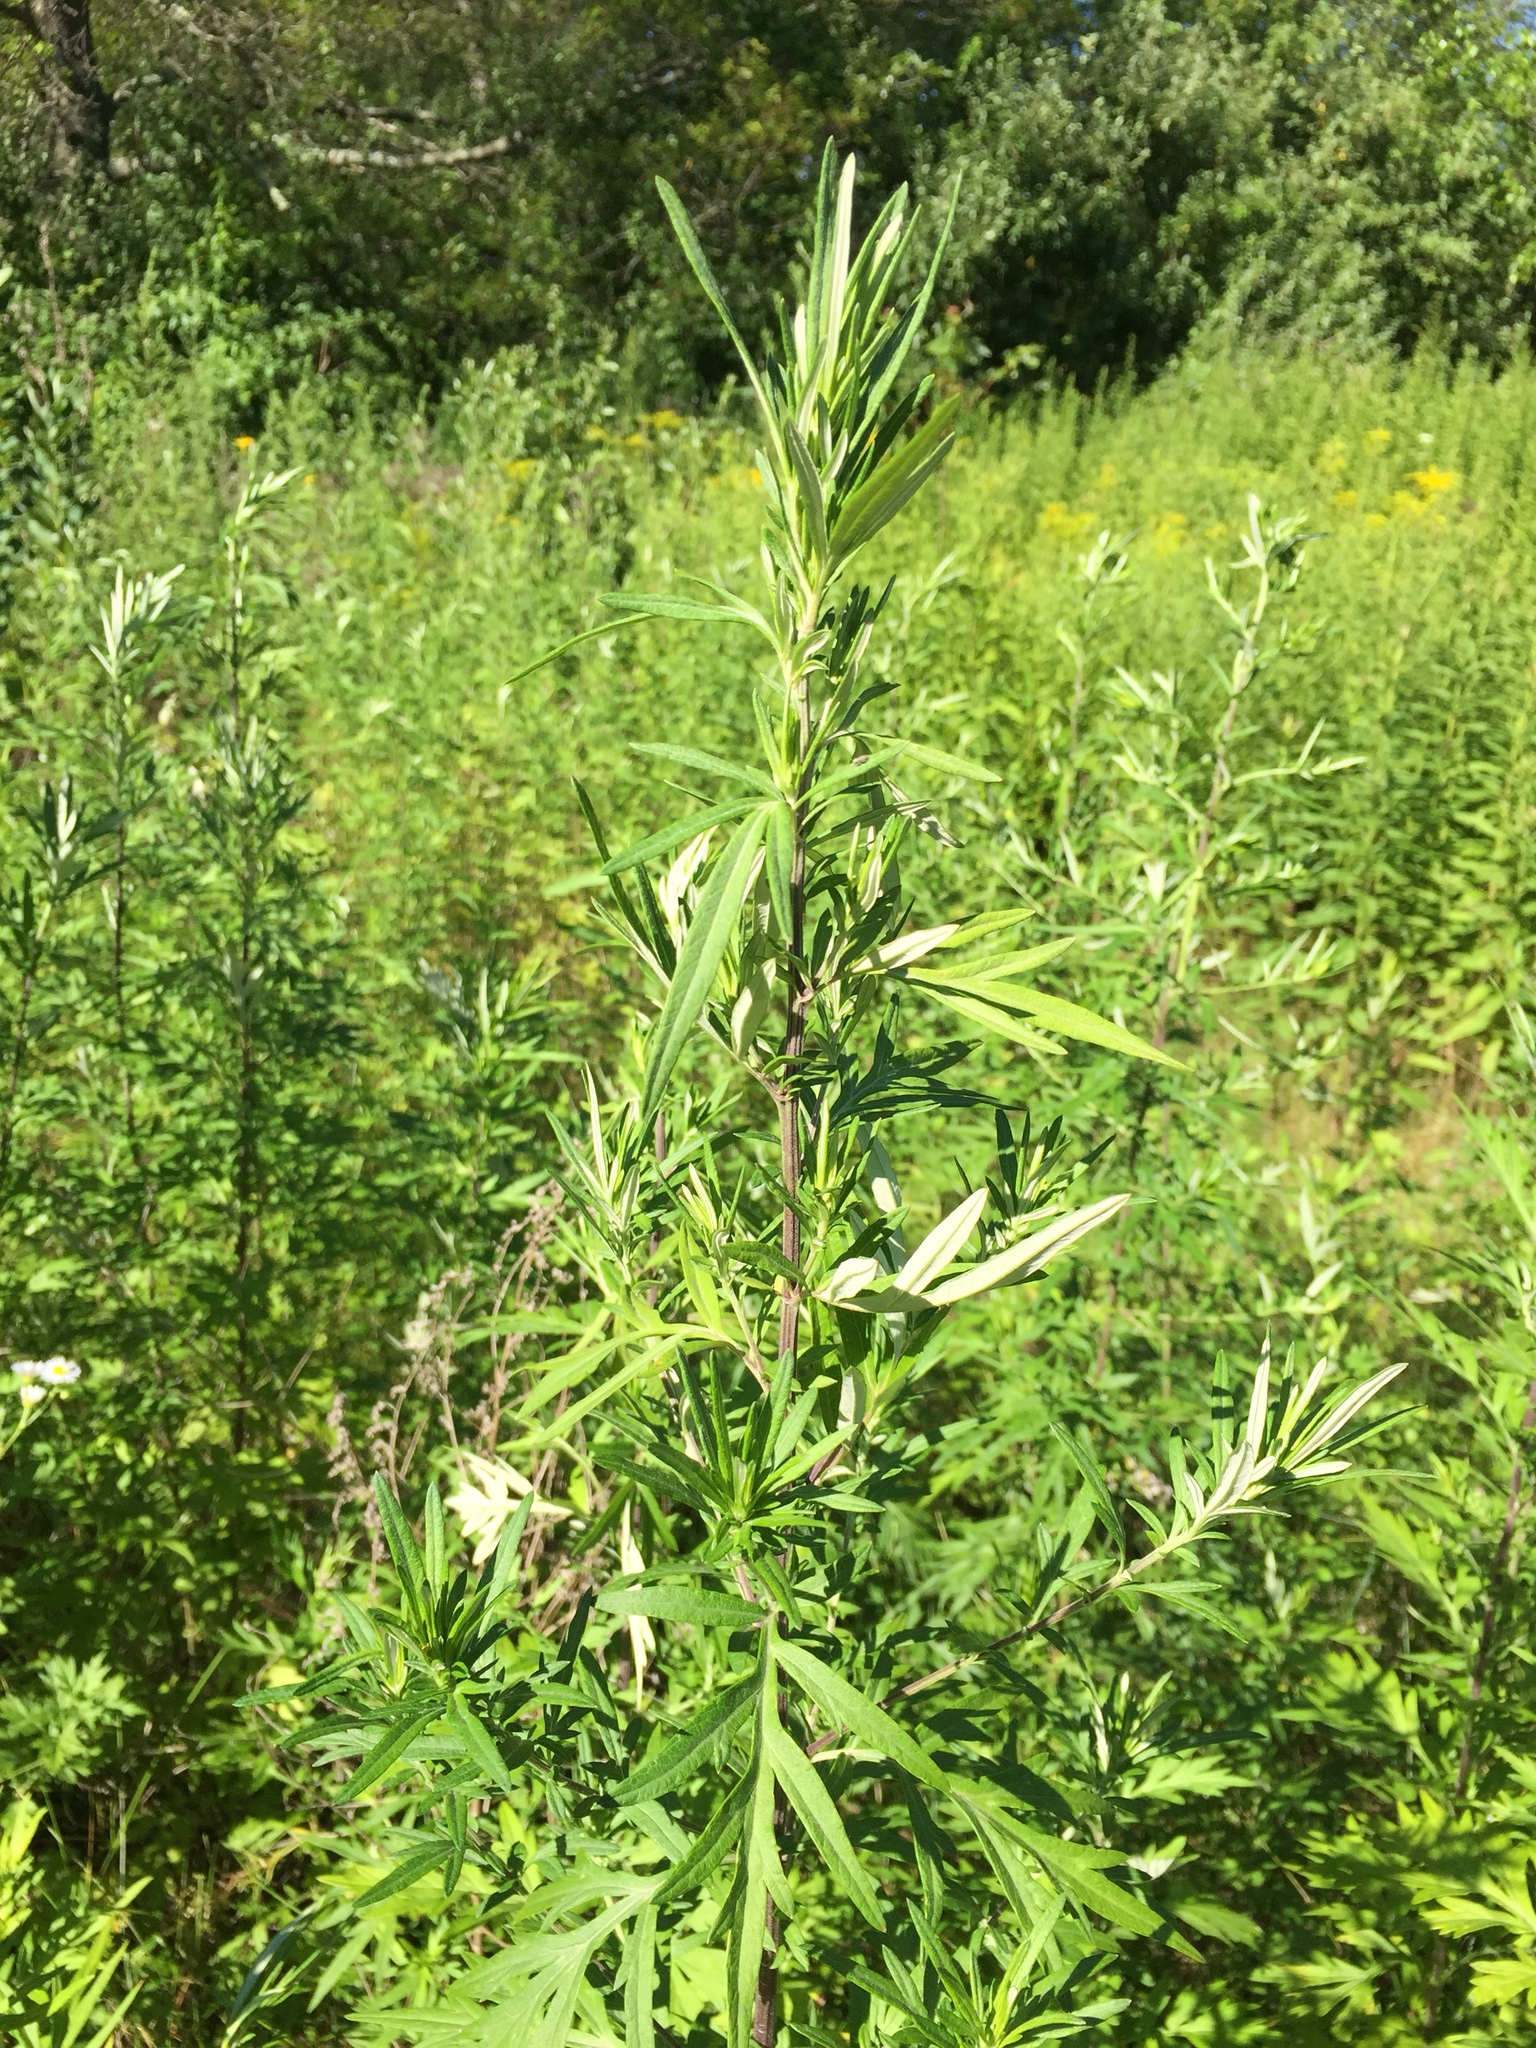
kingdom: Plantae
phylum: Tracheophyta
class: Magnoliopsida
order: Asterales
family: Asteraceae
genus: Artemisia
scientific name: Artemisia vulgaris
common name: Mugwort
